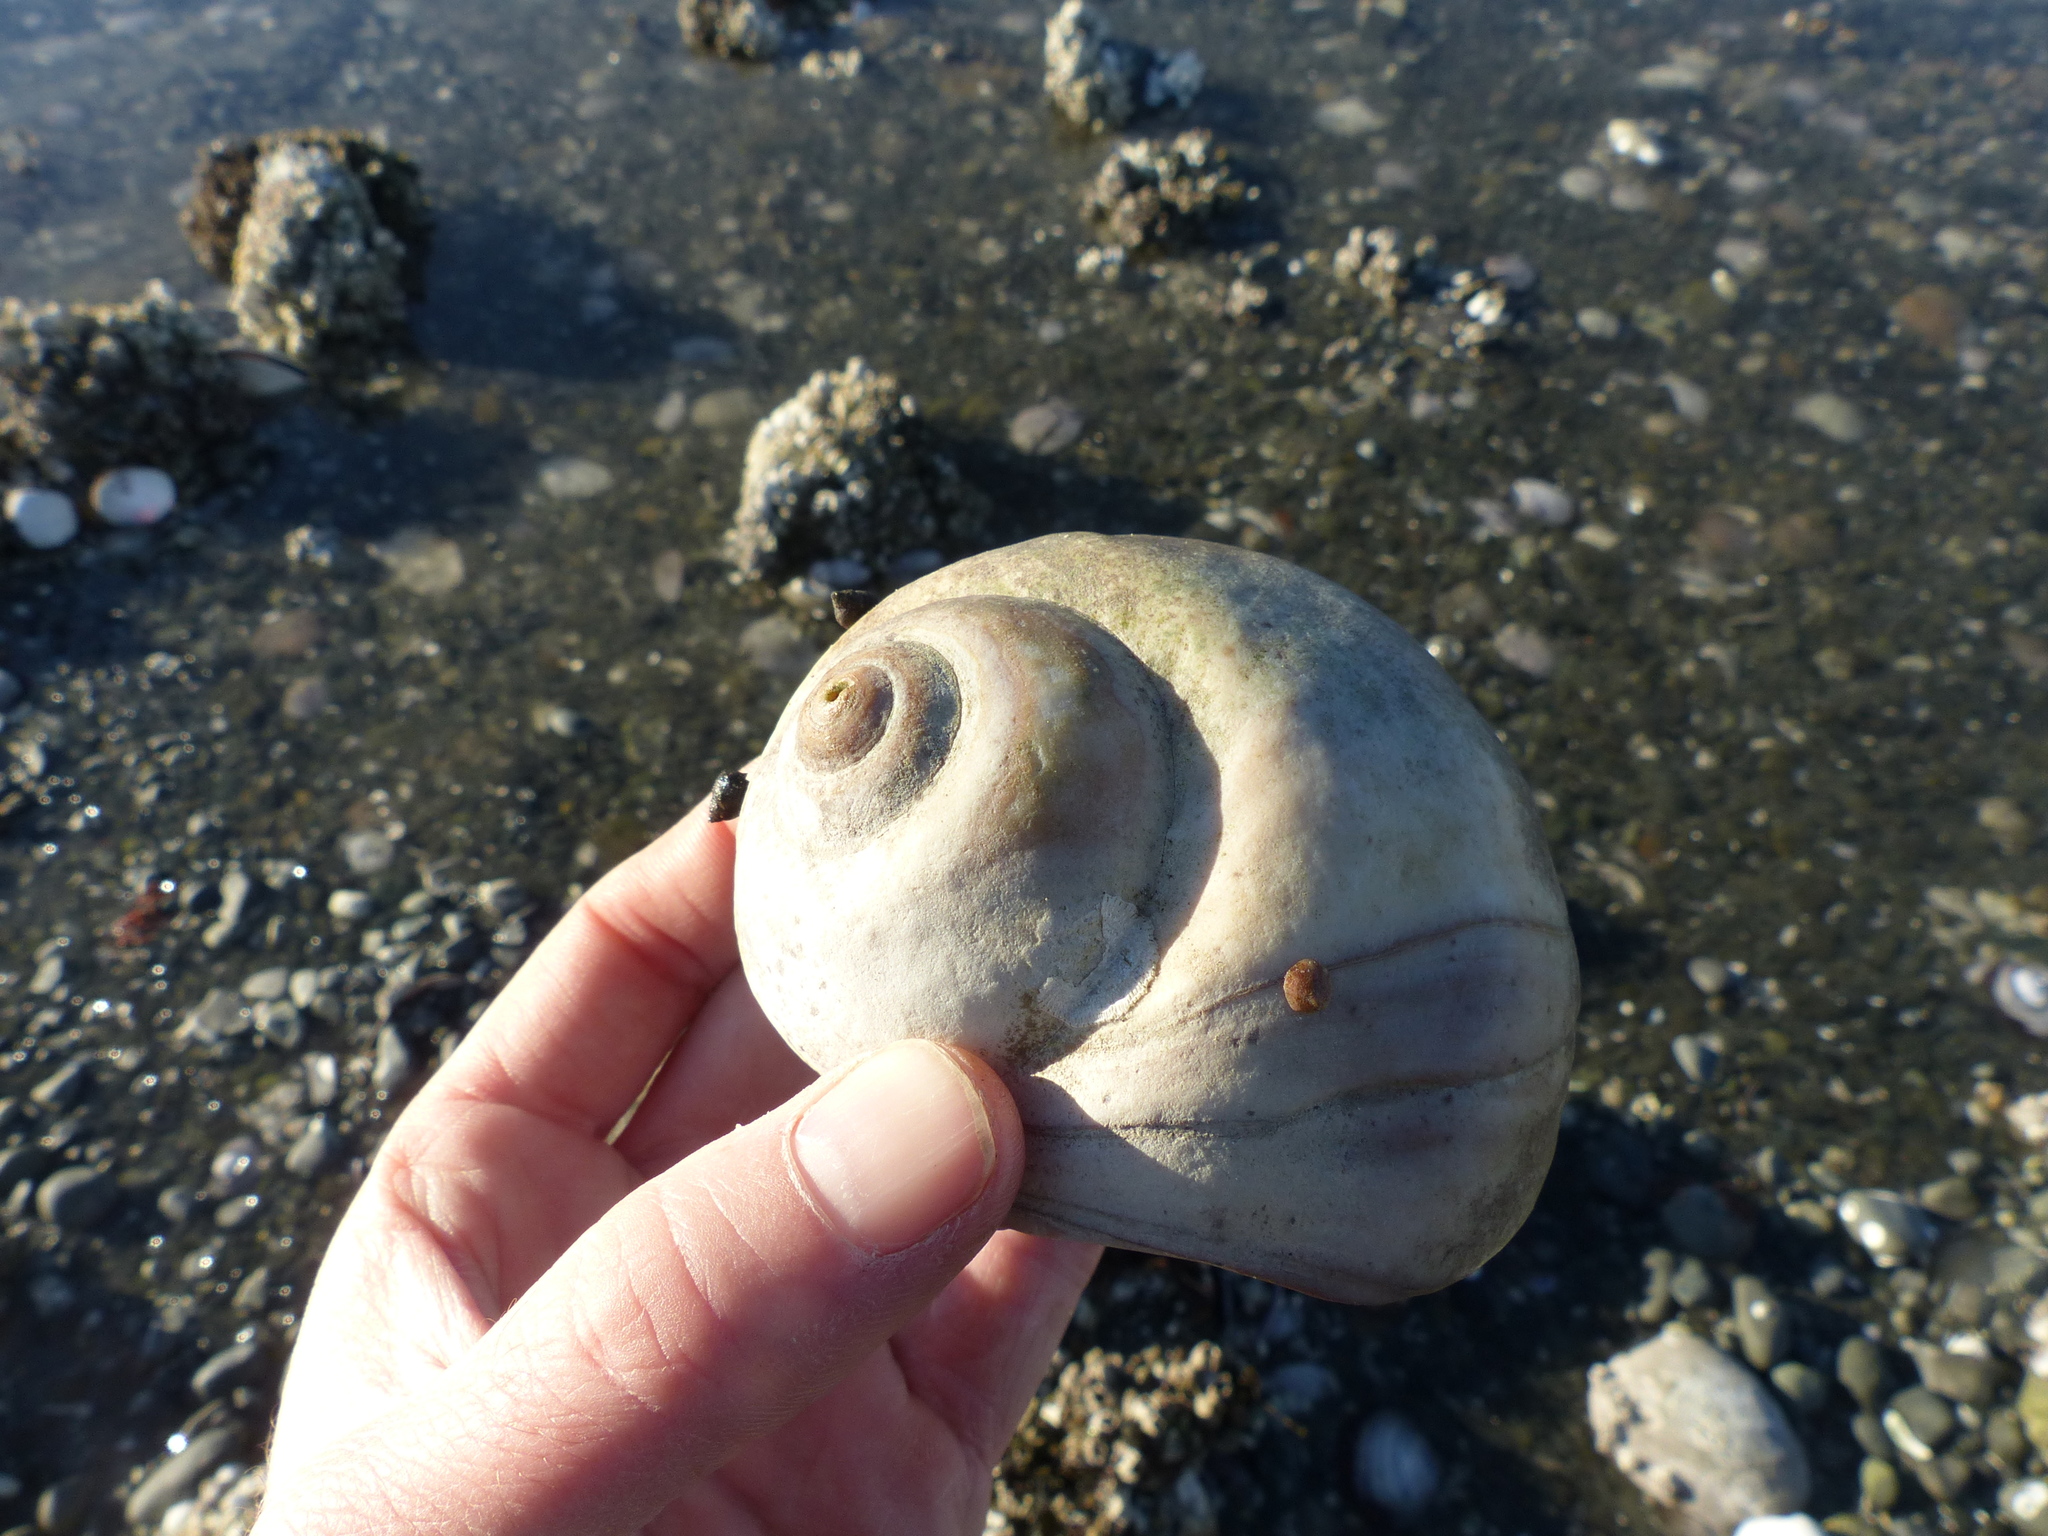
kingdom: Animalia
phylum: Mollusca
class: Gastropoda
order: Littorinimorpha
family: Naticidae
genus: Neverita
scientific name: Neverita lewisii
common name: Lewis' moonsnail
